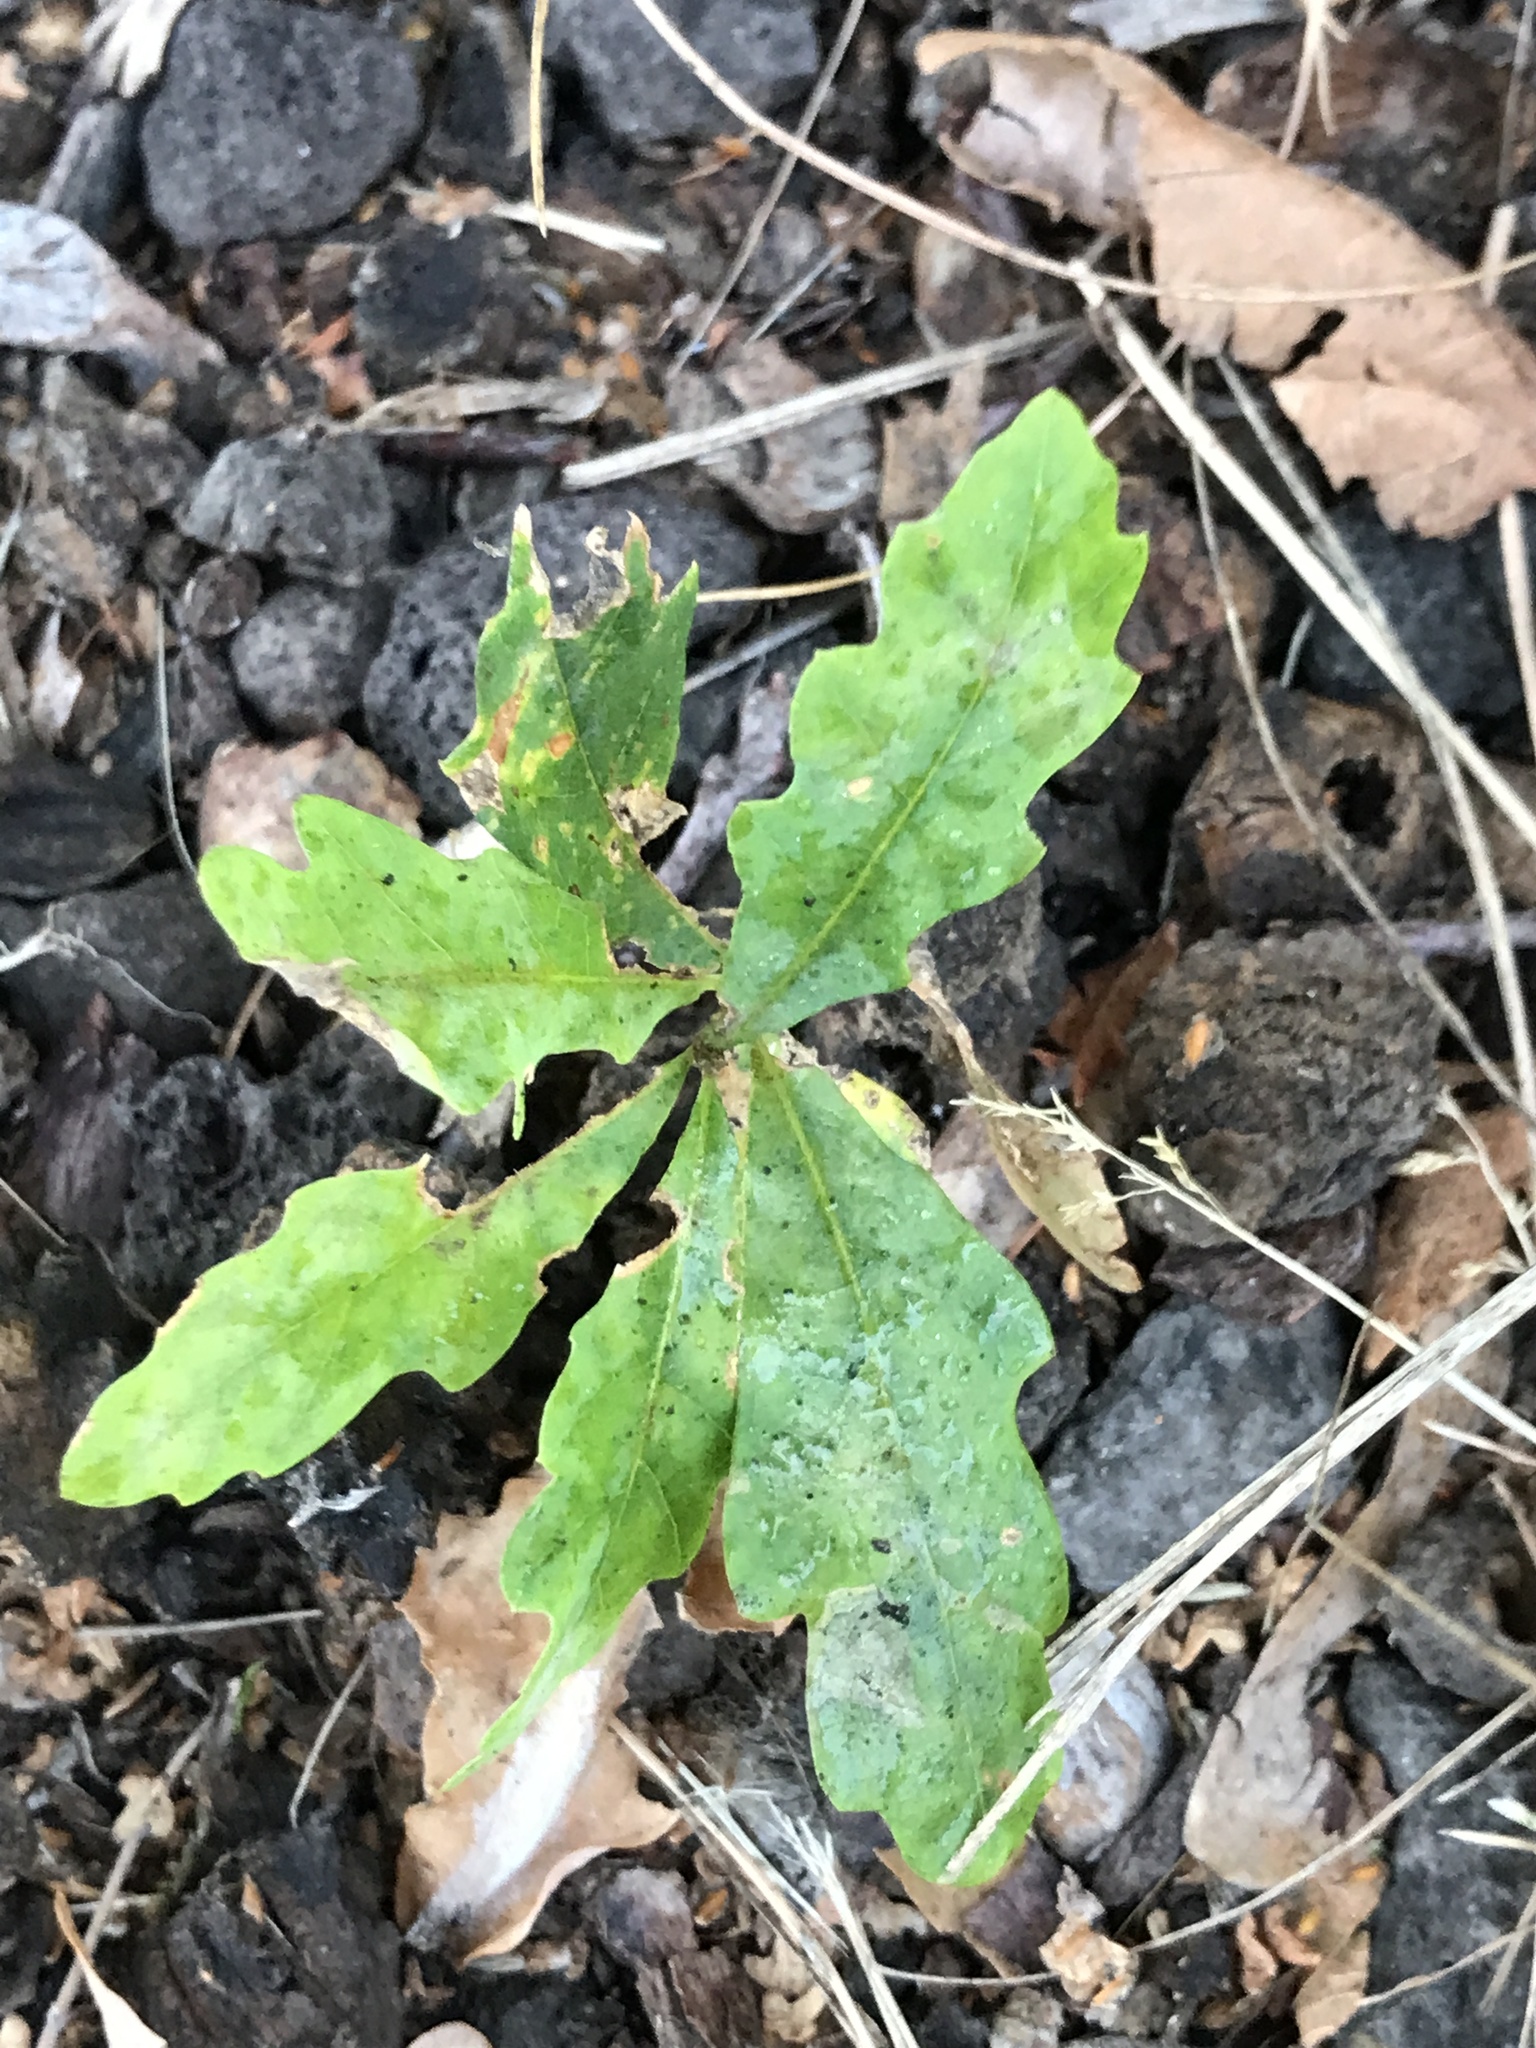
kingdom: Plantae
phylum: Tracheophyta
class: Magnoliopsida
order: Fagales
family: Fagaceae
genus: Quercus
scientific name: Quercus petraea
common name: Sessile oak
